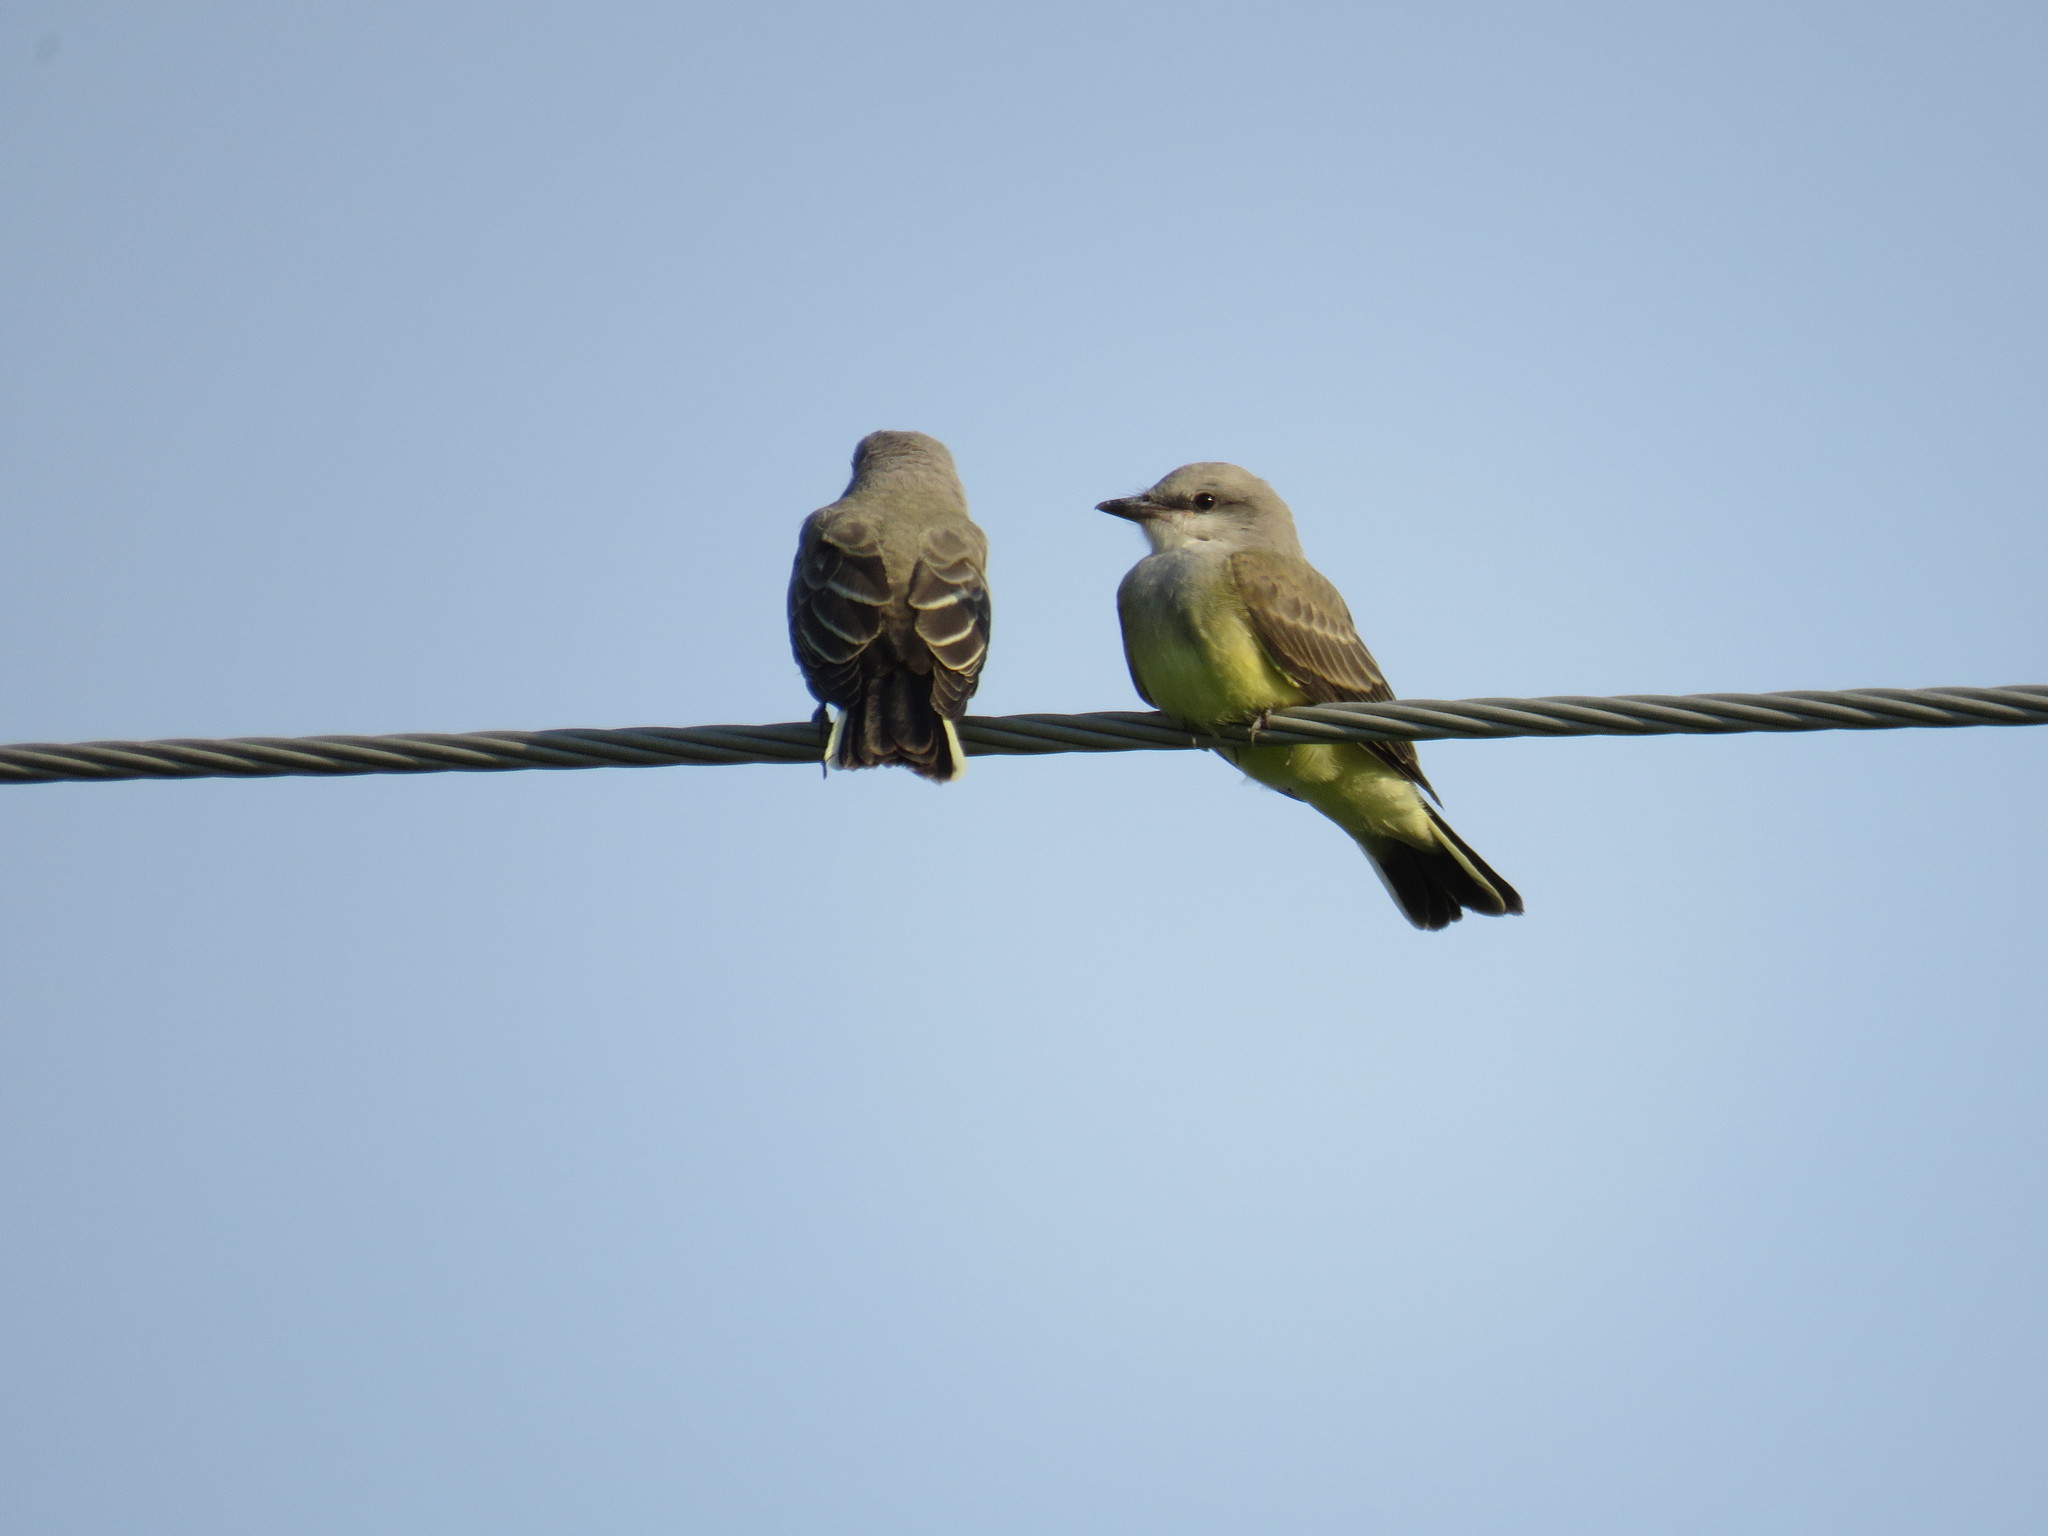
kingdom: Animalia
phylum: Chordata
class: Aves
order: Passeriformes
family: Tyrannidae
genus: Tyrannus
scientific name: Tyrannus verticalis
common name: Western kingbird
